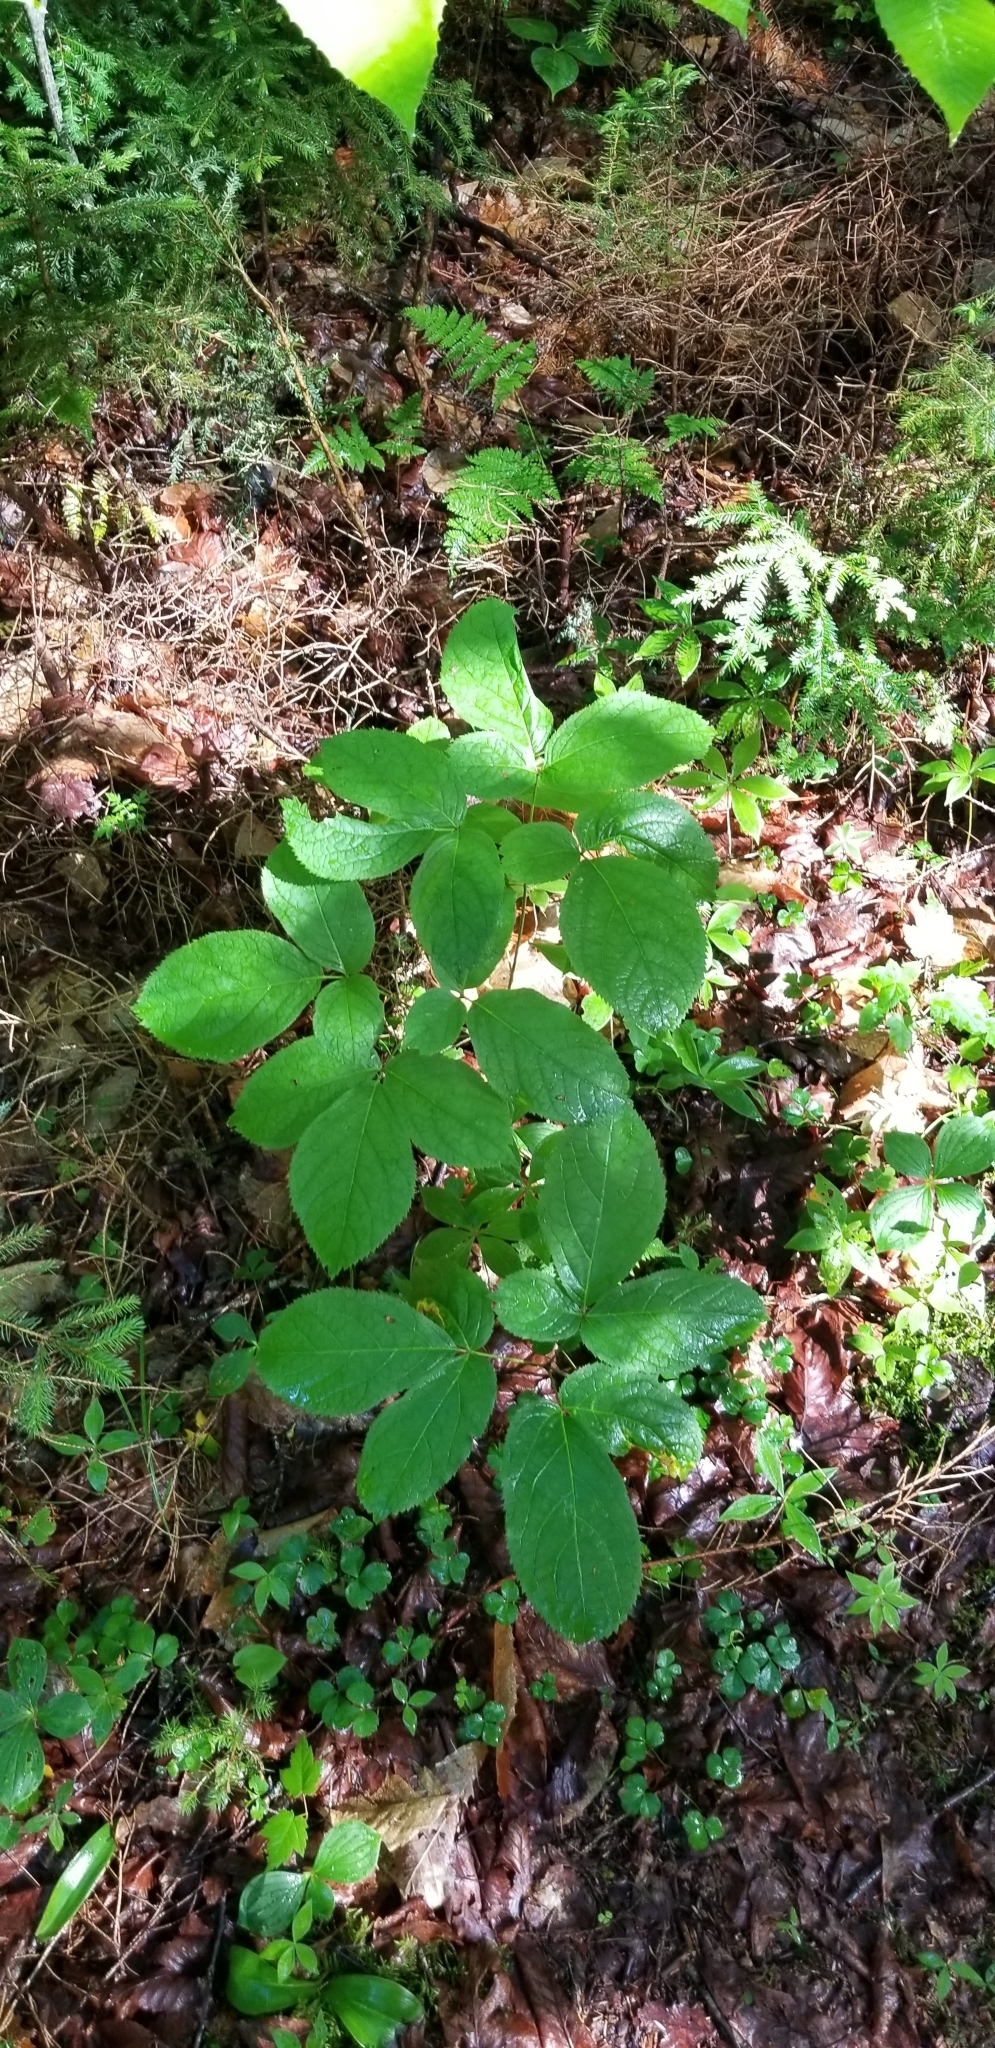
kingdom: Plantae
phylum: Tracheophyta
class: Magnoliopsida
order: Apiales
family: Araliaceae
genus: Aralia
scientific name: Aralia nudicaulis
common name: Wild sarsaparilla
